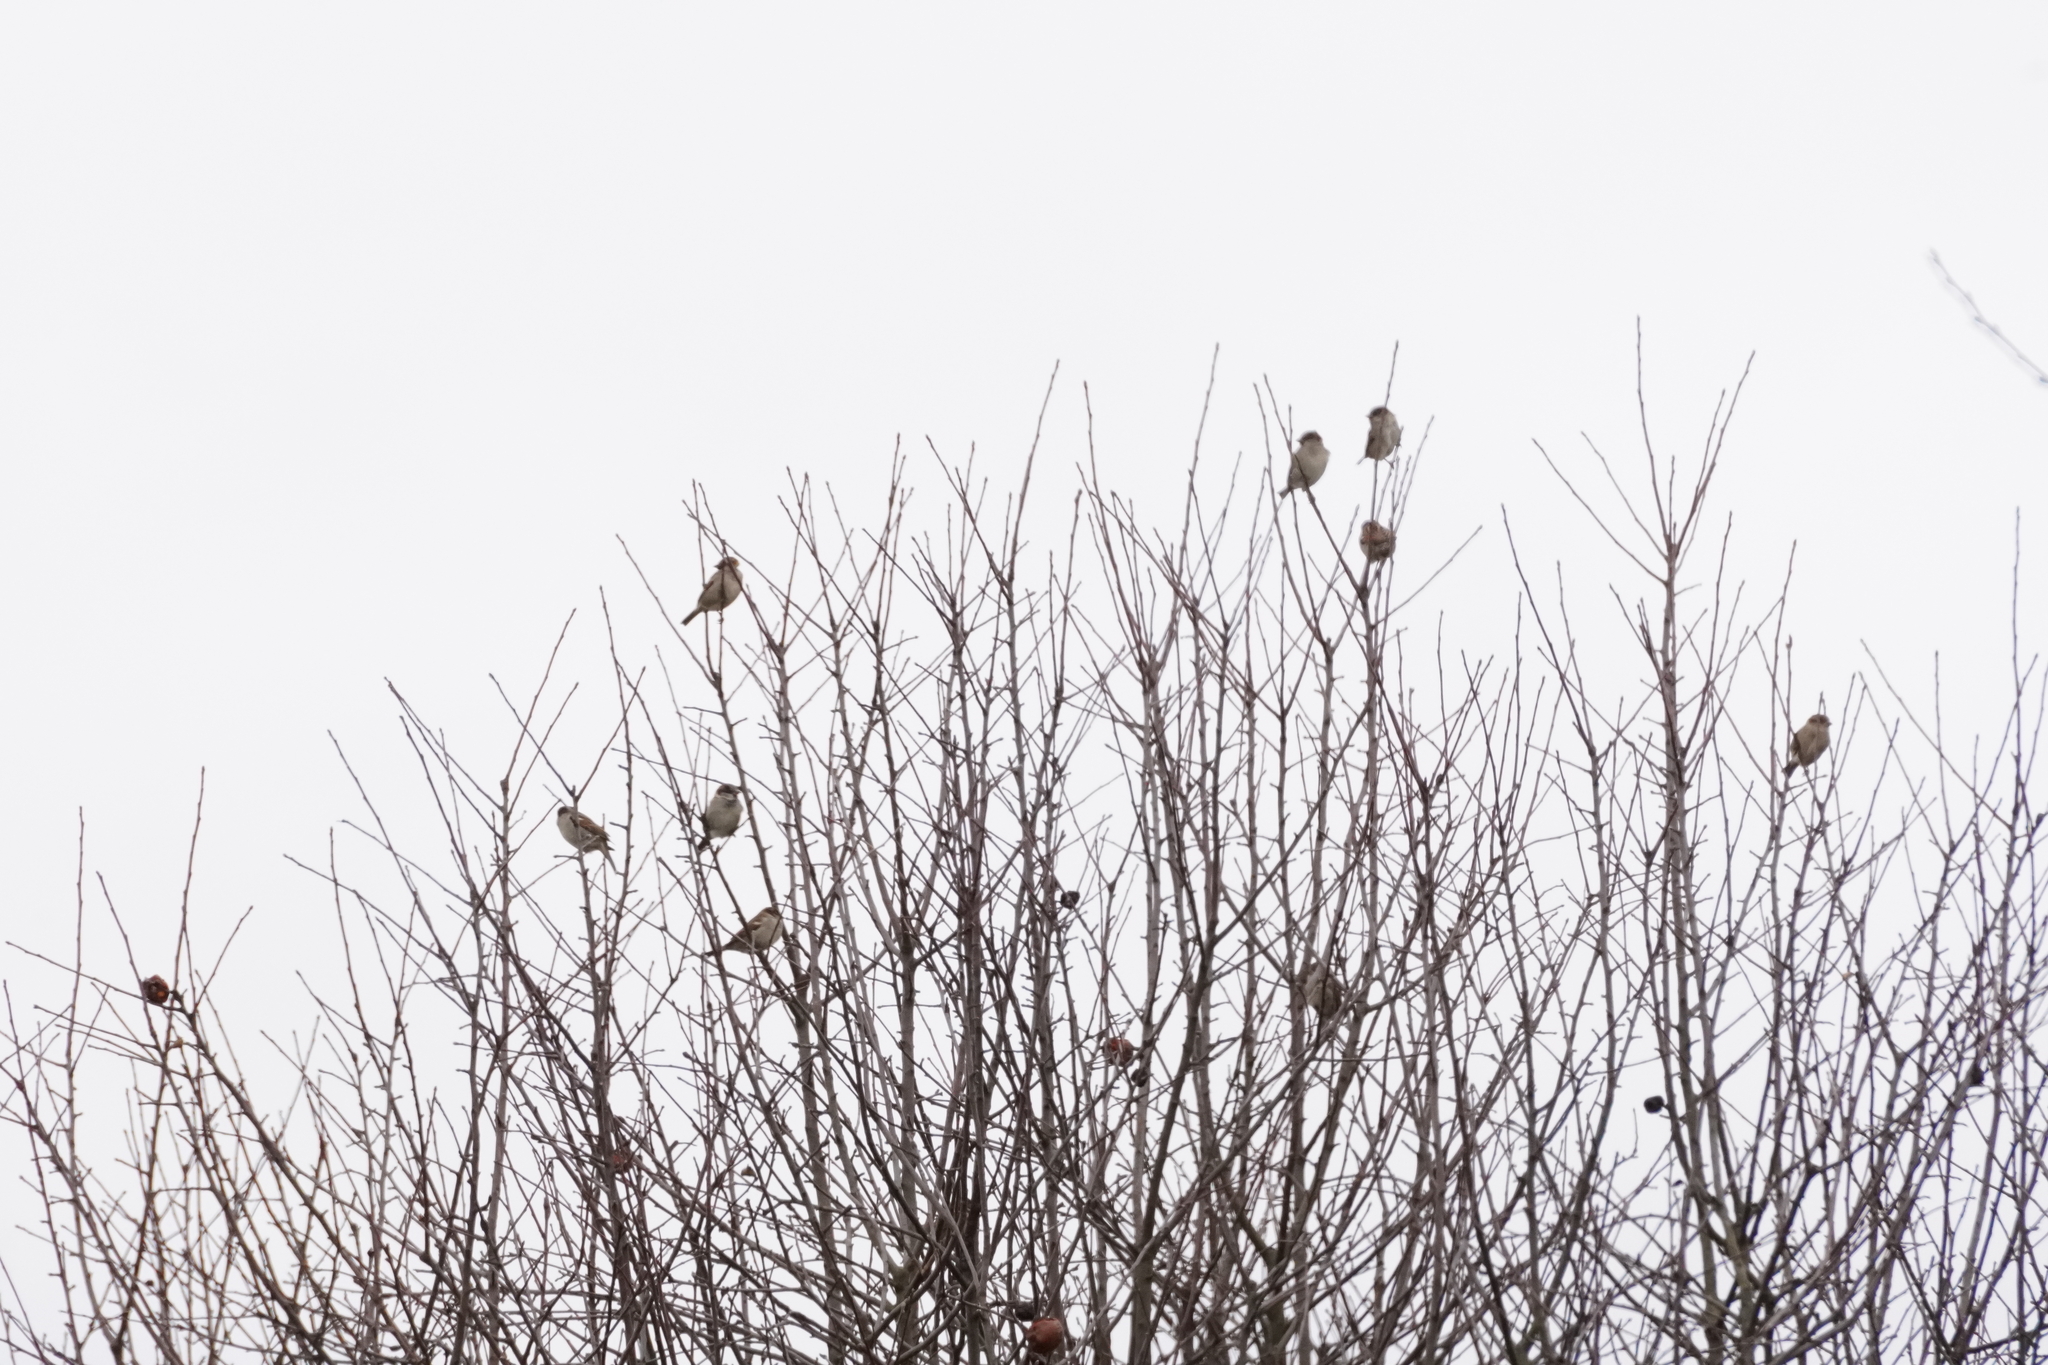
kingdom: Animalia
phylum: Chordata
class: Aves
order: Passeriformes
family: Passeridae
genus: Passer
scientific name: Passer domesticus
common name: House sparrow
